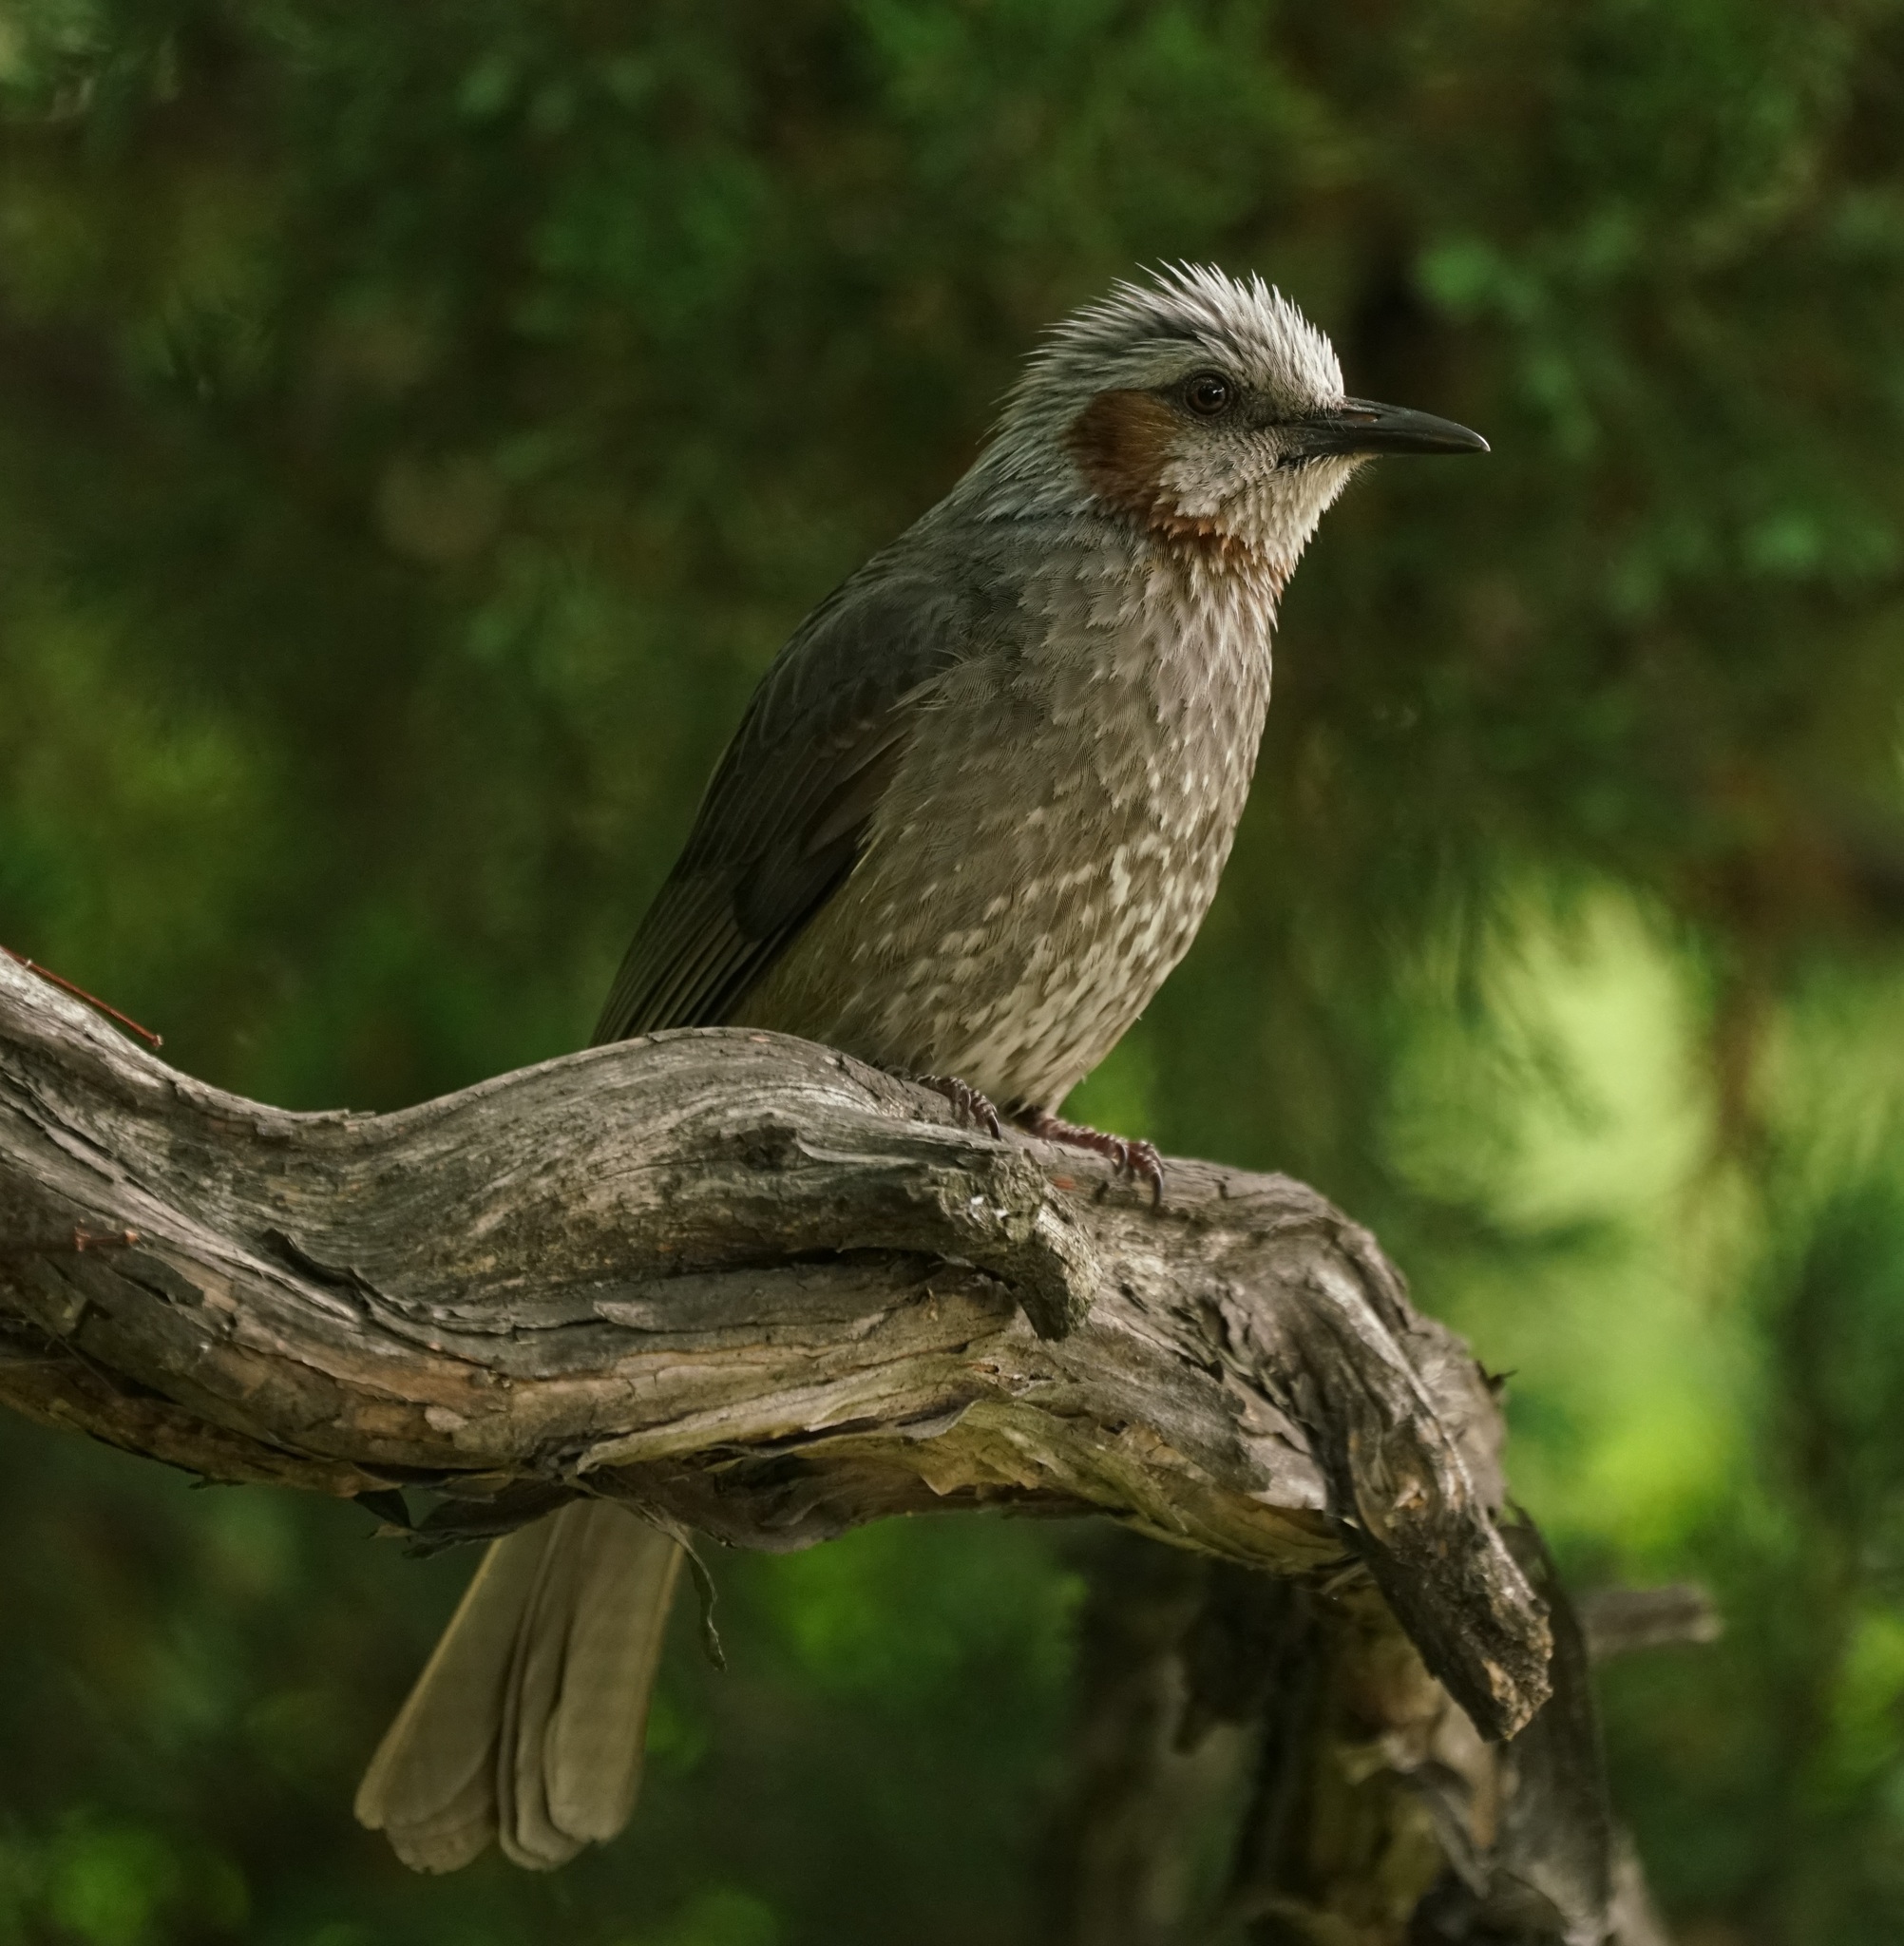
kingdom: Animalia
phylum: Chordata
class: Aves
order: Passeriformes
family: Pycnonotidae
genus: Hypsipetes
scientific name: Hypsipetes amaurotis
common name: Brown-eared bulbul
